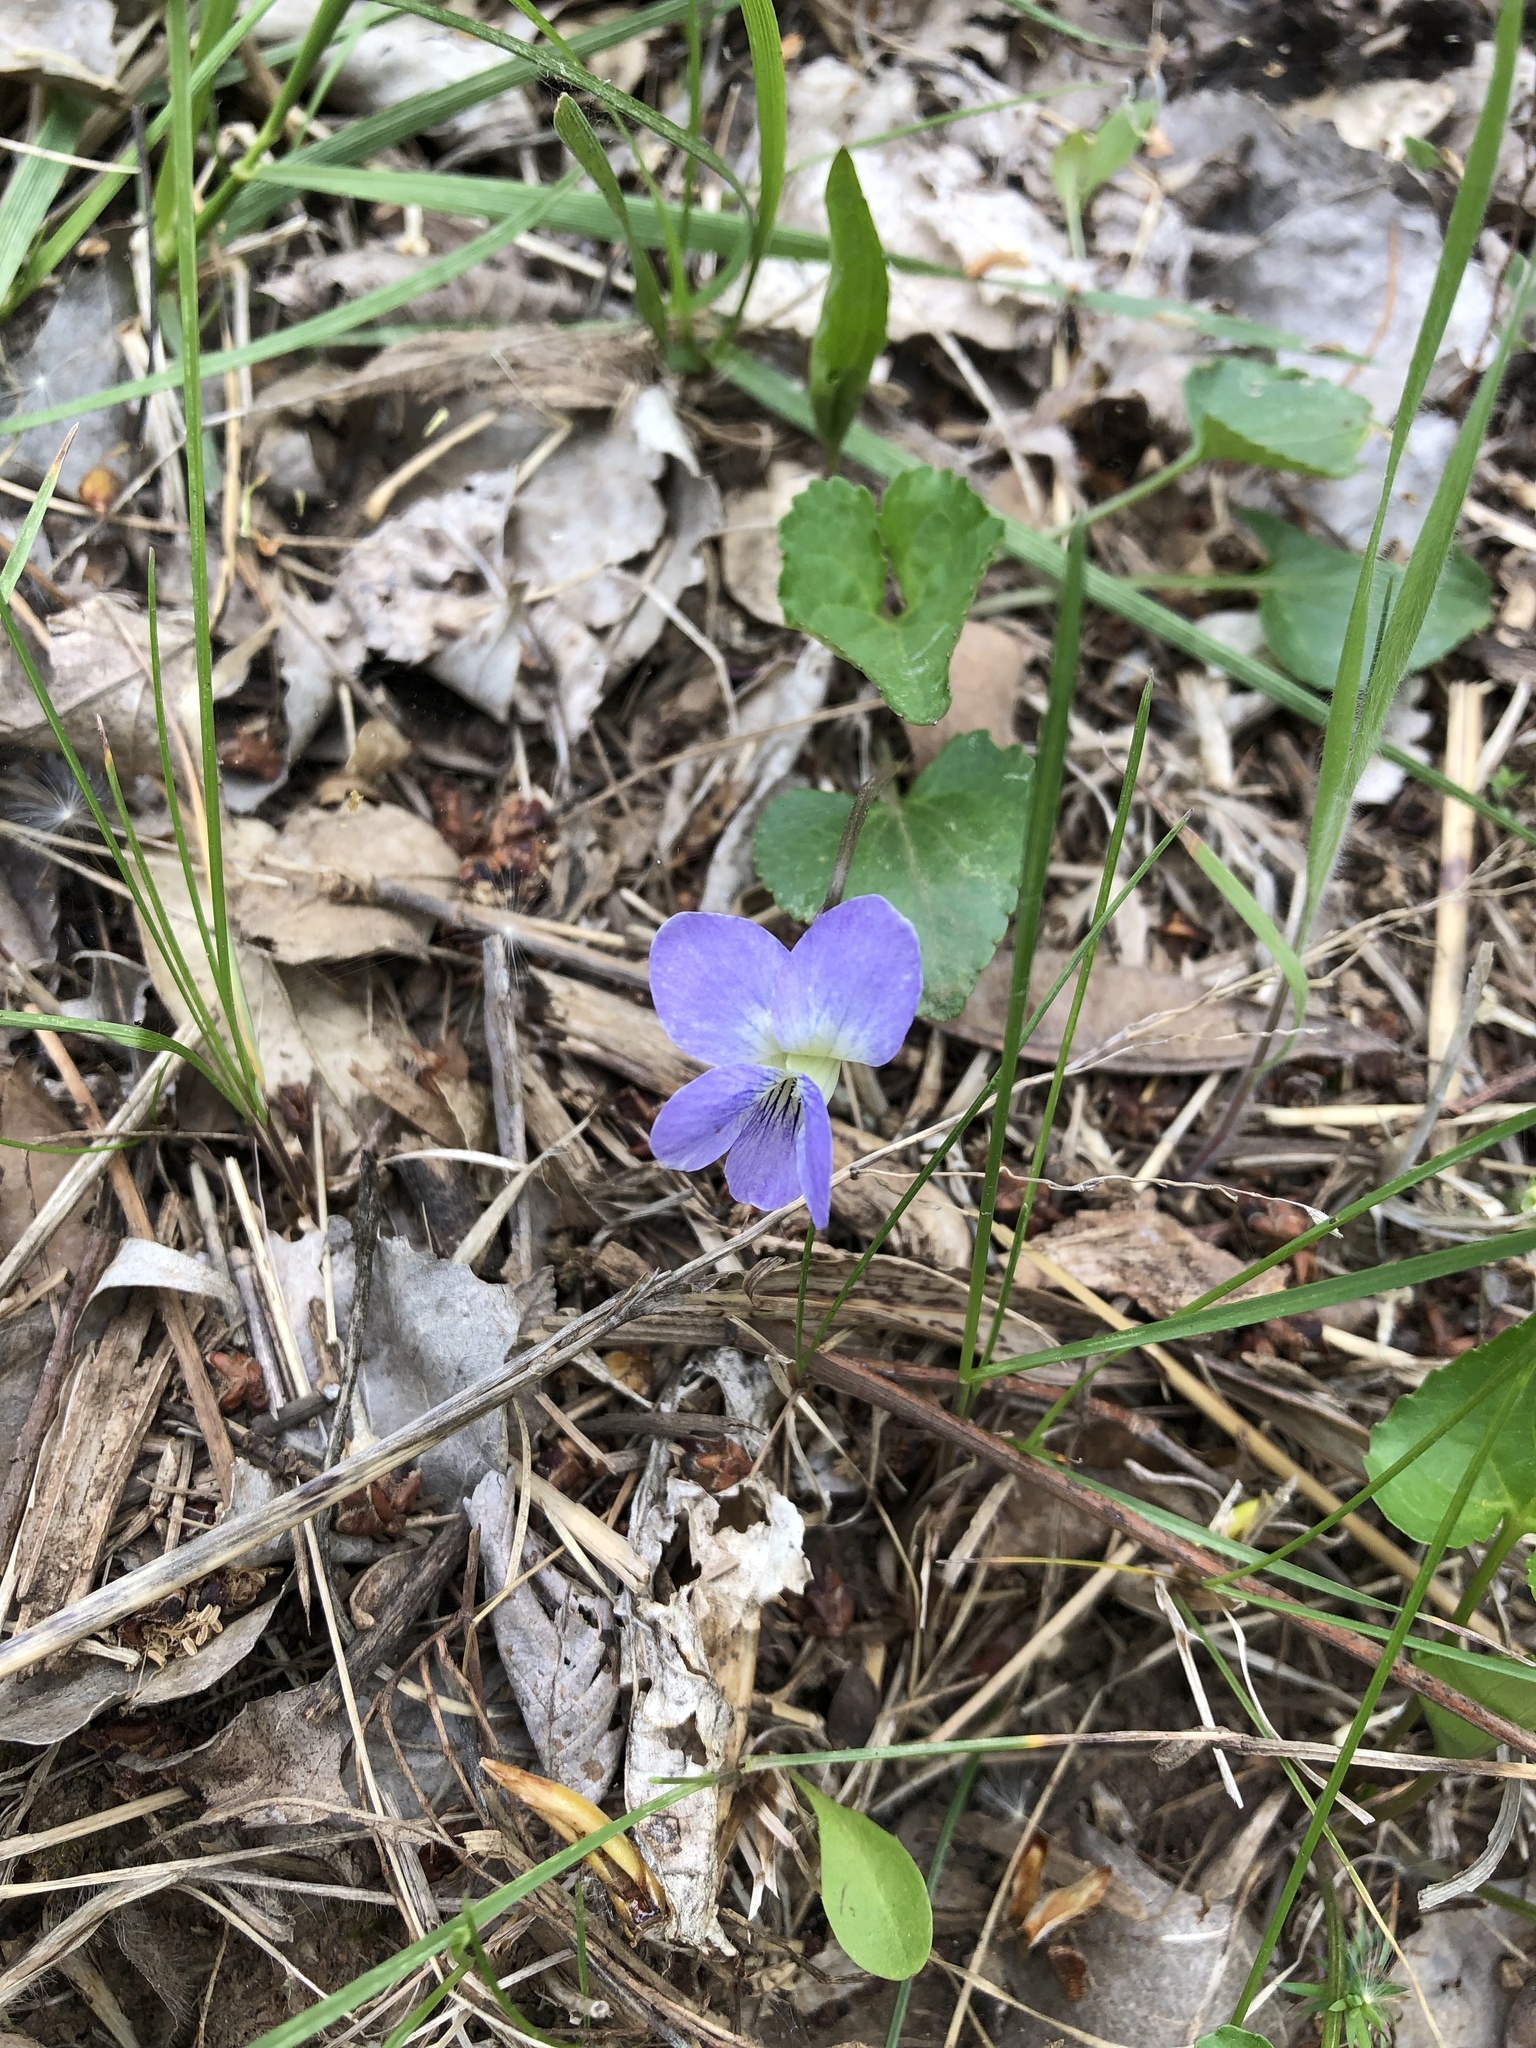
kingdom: Plantae
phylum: Tracheophyta
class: Magnoliopsida
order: Malpighiales
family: Violaceae
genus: Viola
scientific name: Viola sororia
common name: Dooryard violet
